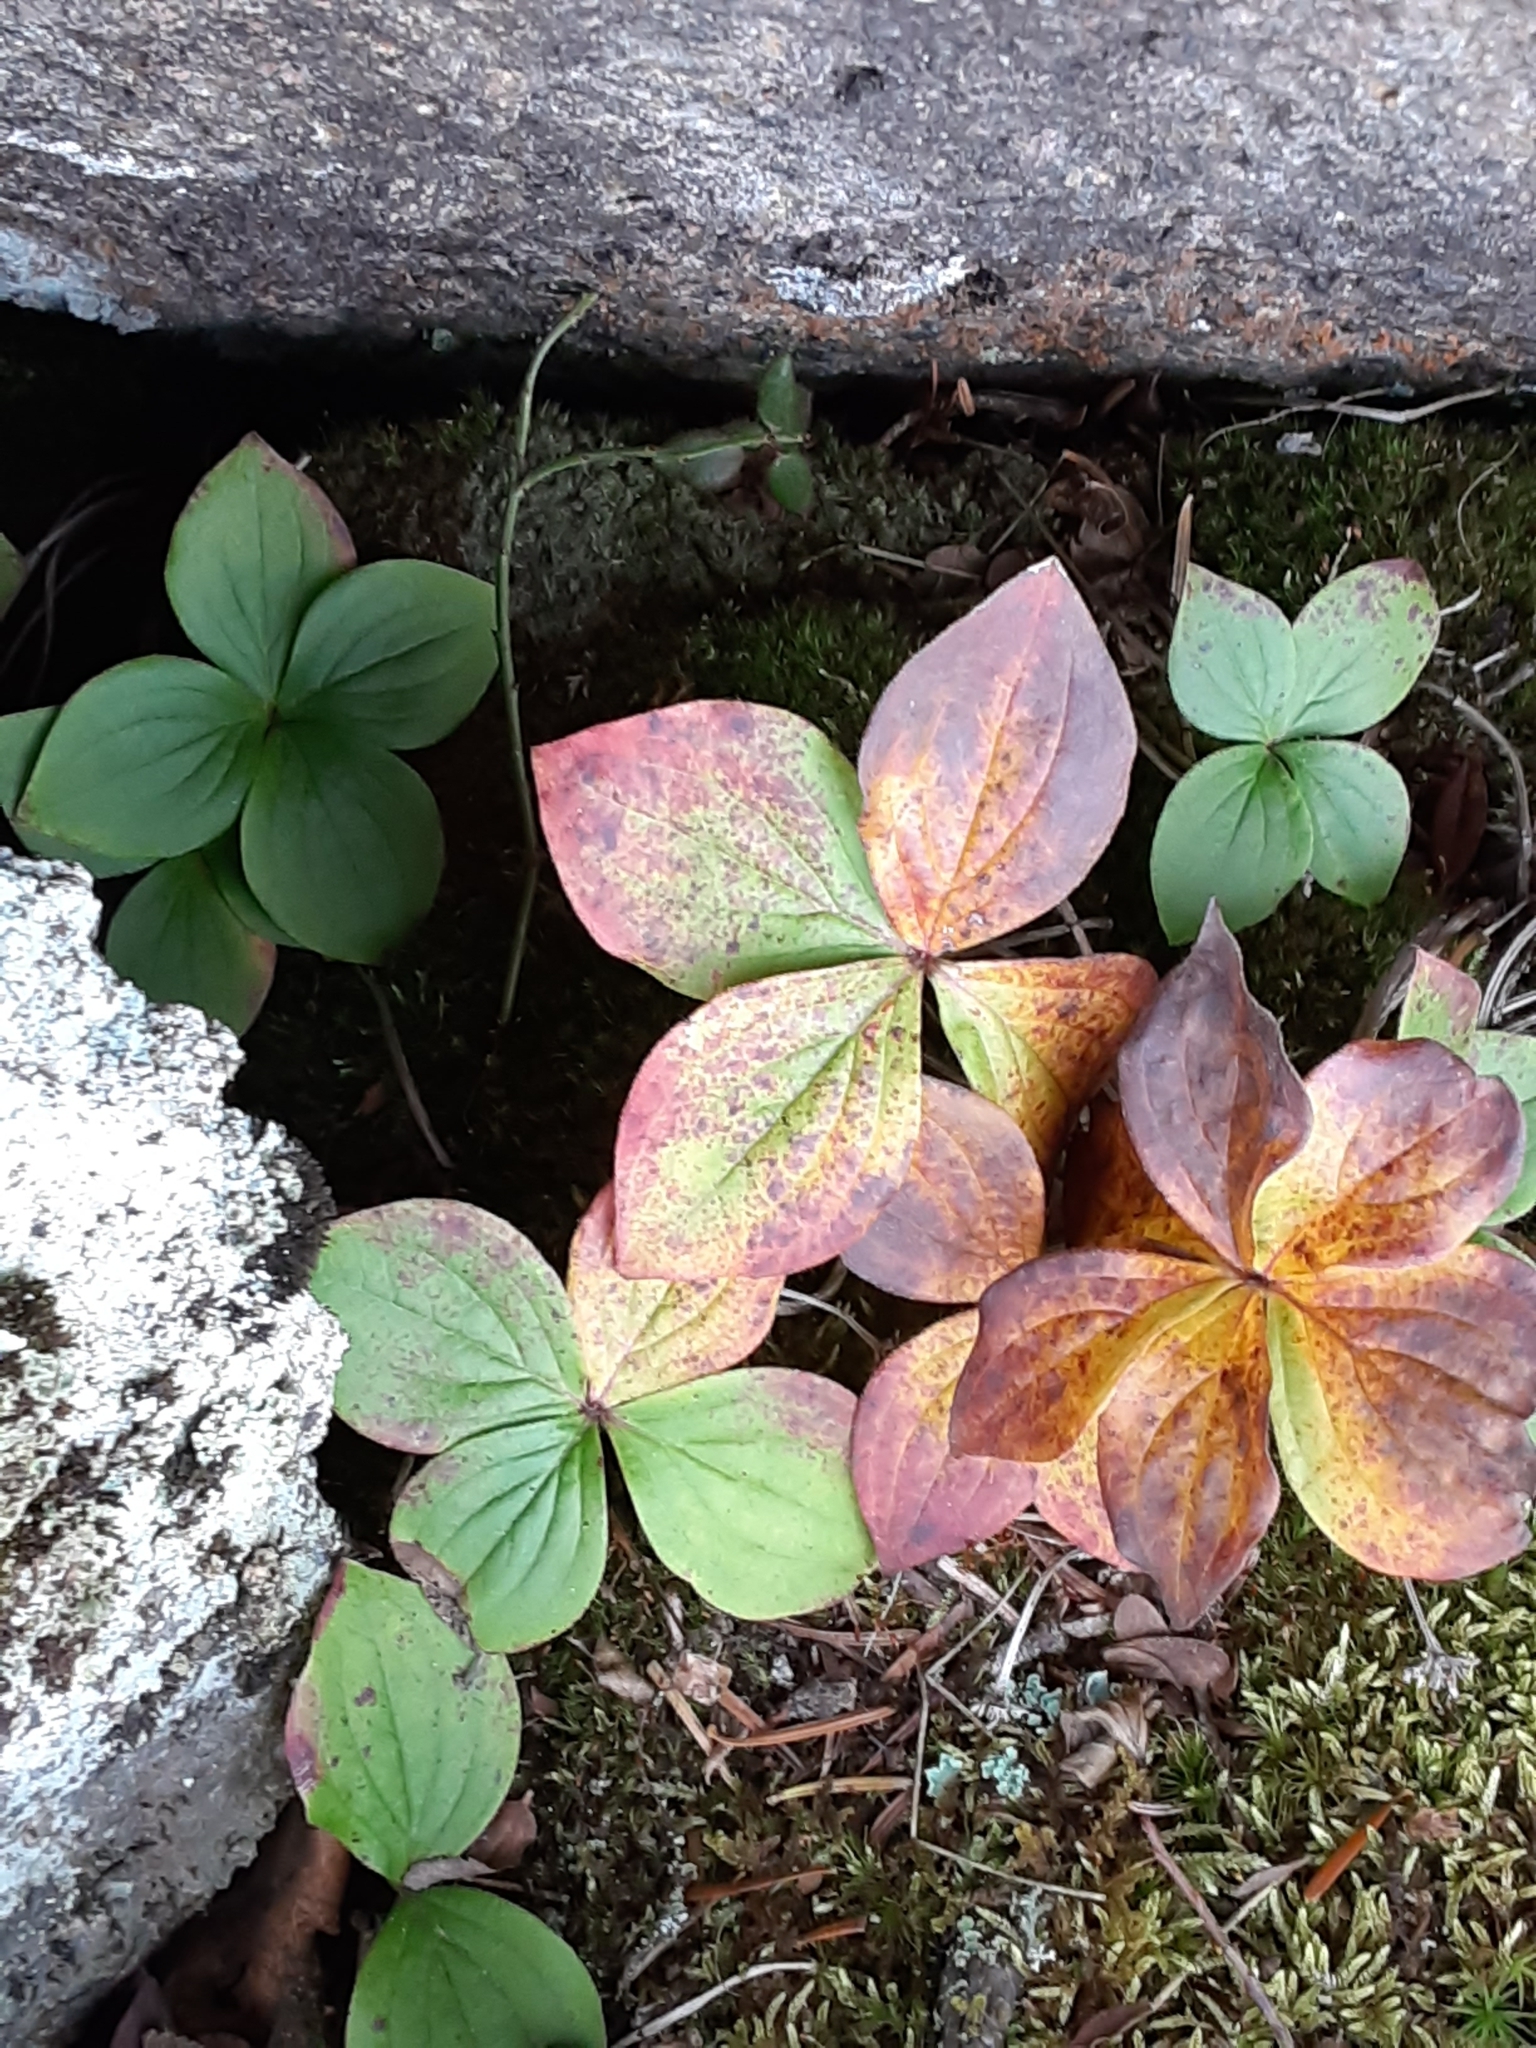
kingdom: Plantae
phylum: Tracheophyta
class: Magnoliopsida
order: Cornales
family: Cornaceae
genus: Cornus
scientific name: Cornus canadensis
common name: Creeping dogwood
